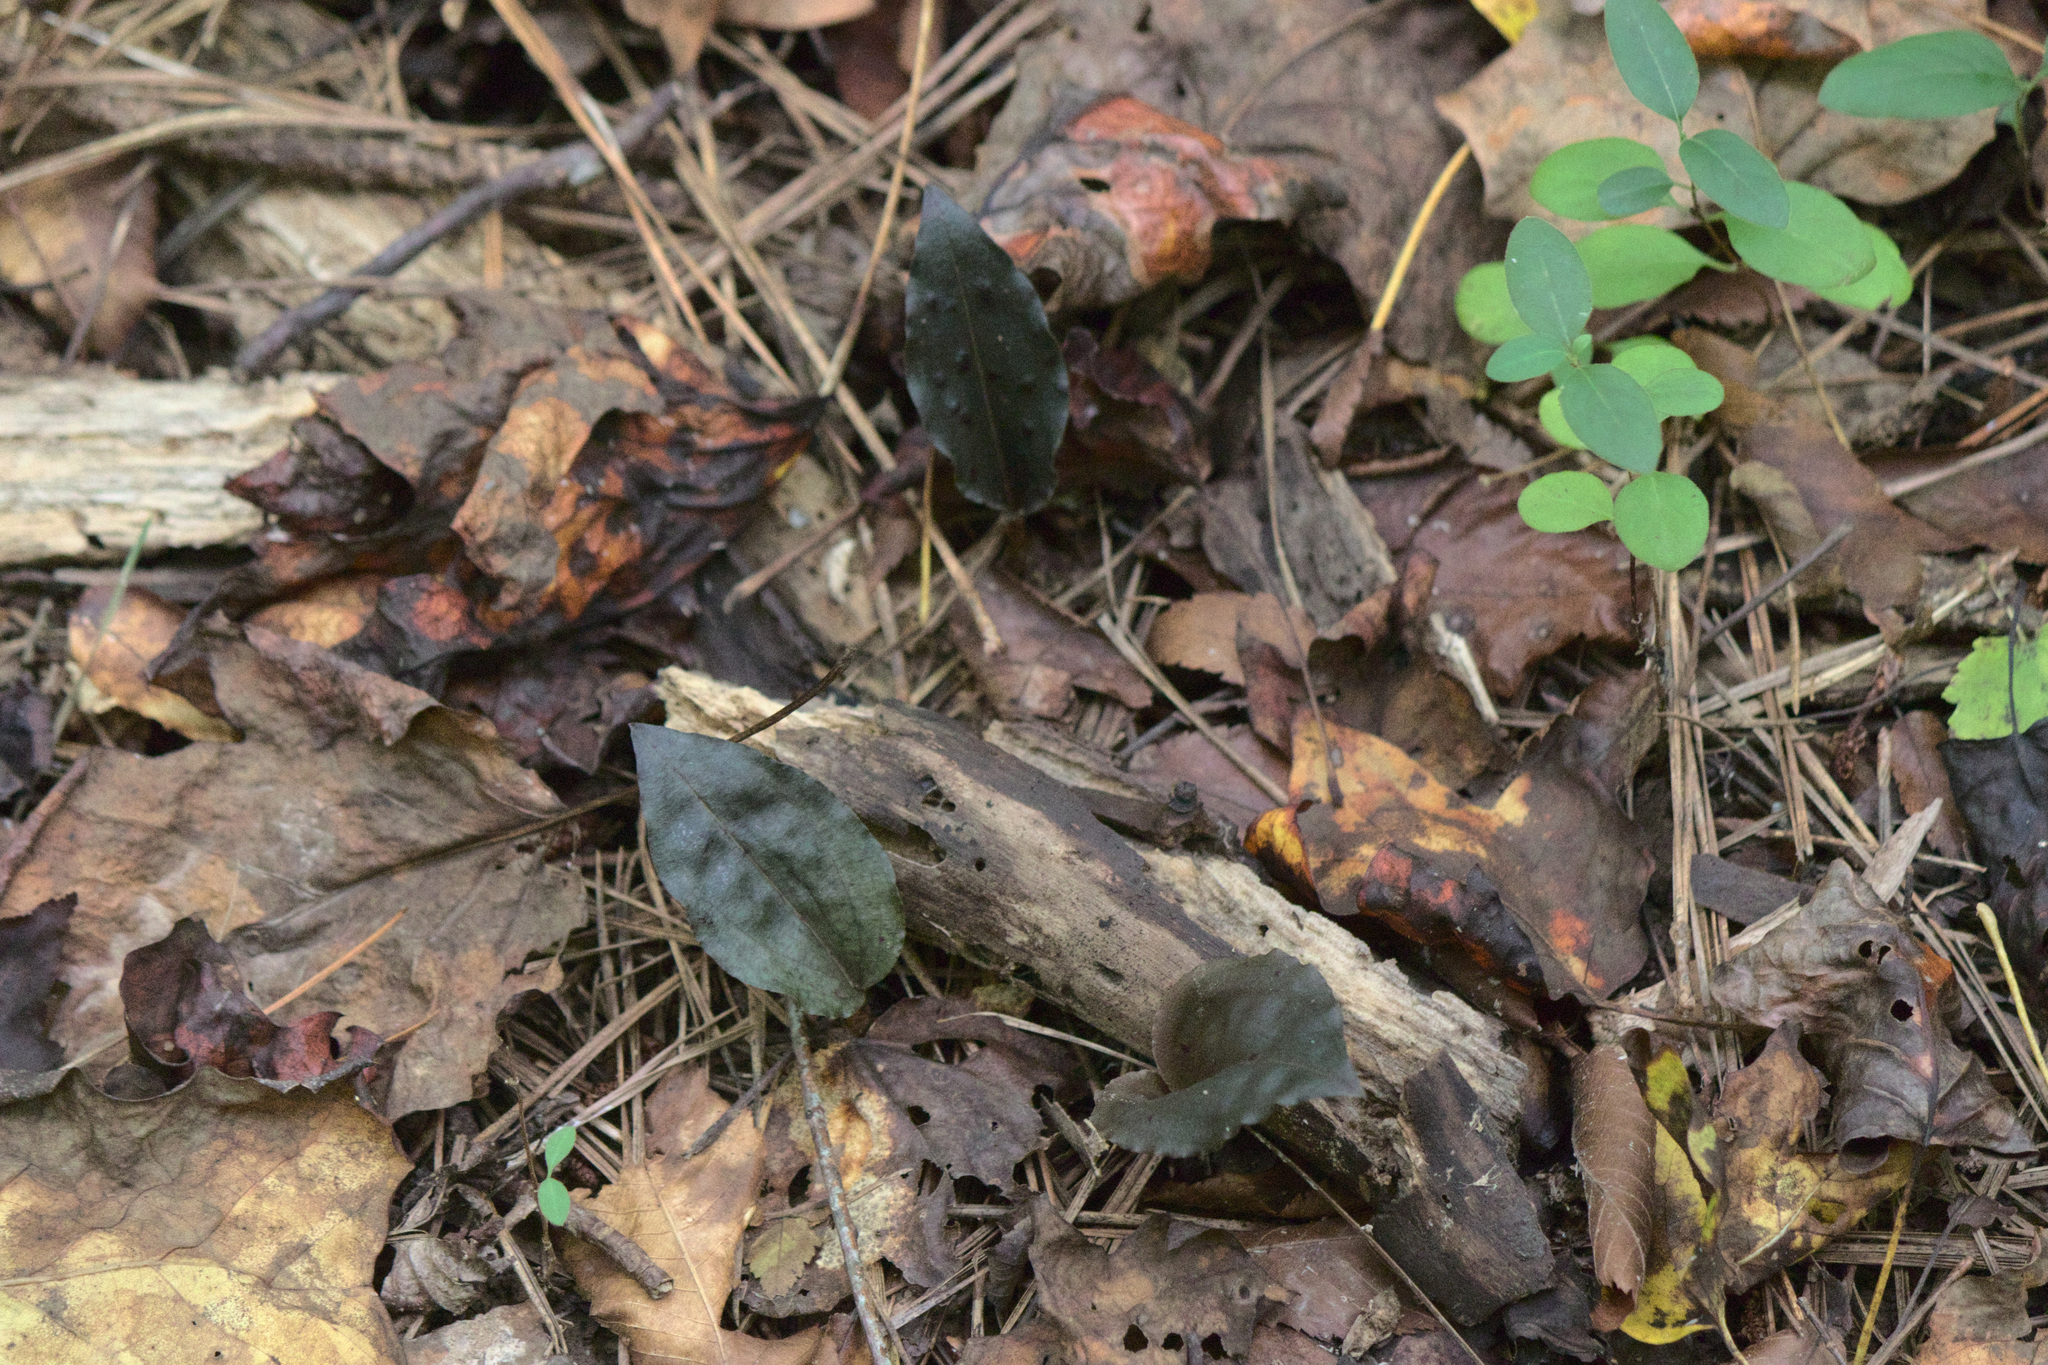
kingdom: Plantae
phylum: Tracheophyta
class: Liliopsida
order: Asparagales
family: Orchidaceae
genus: Tipularia
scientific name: Tipularia discolor
